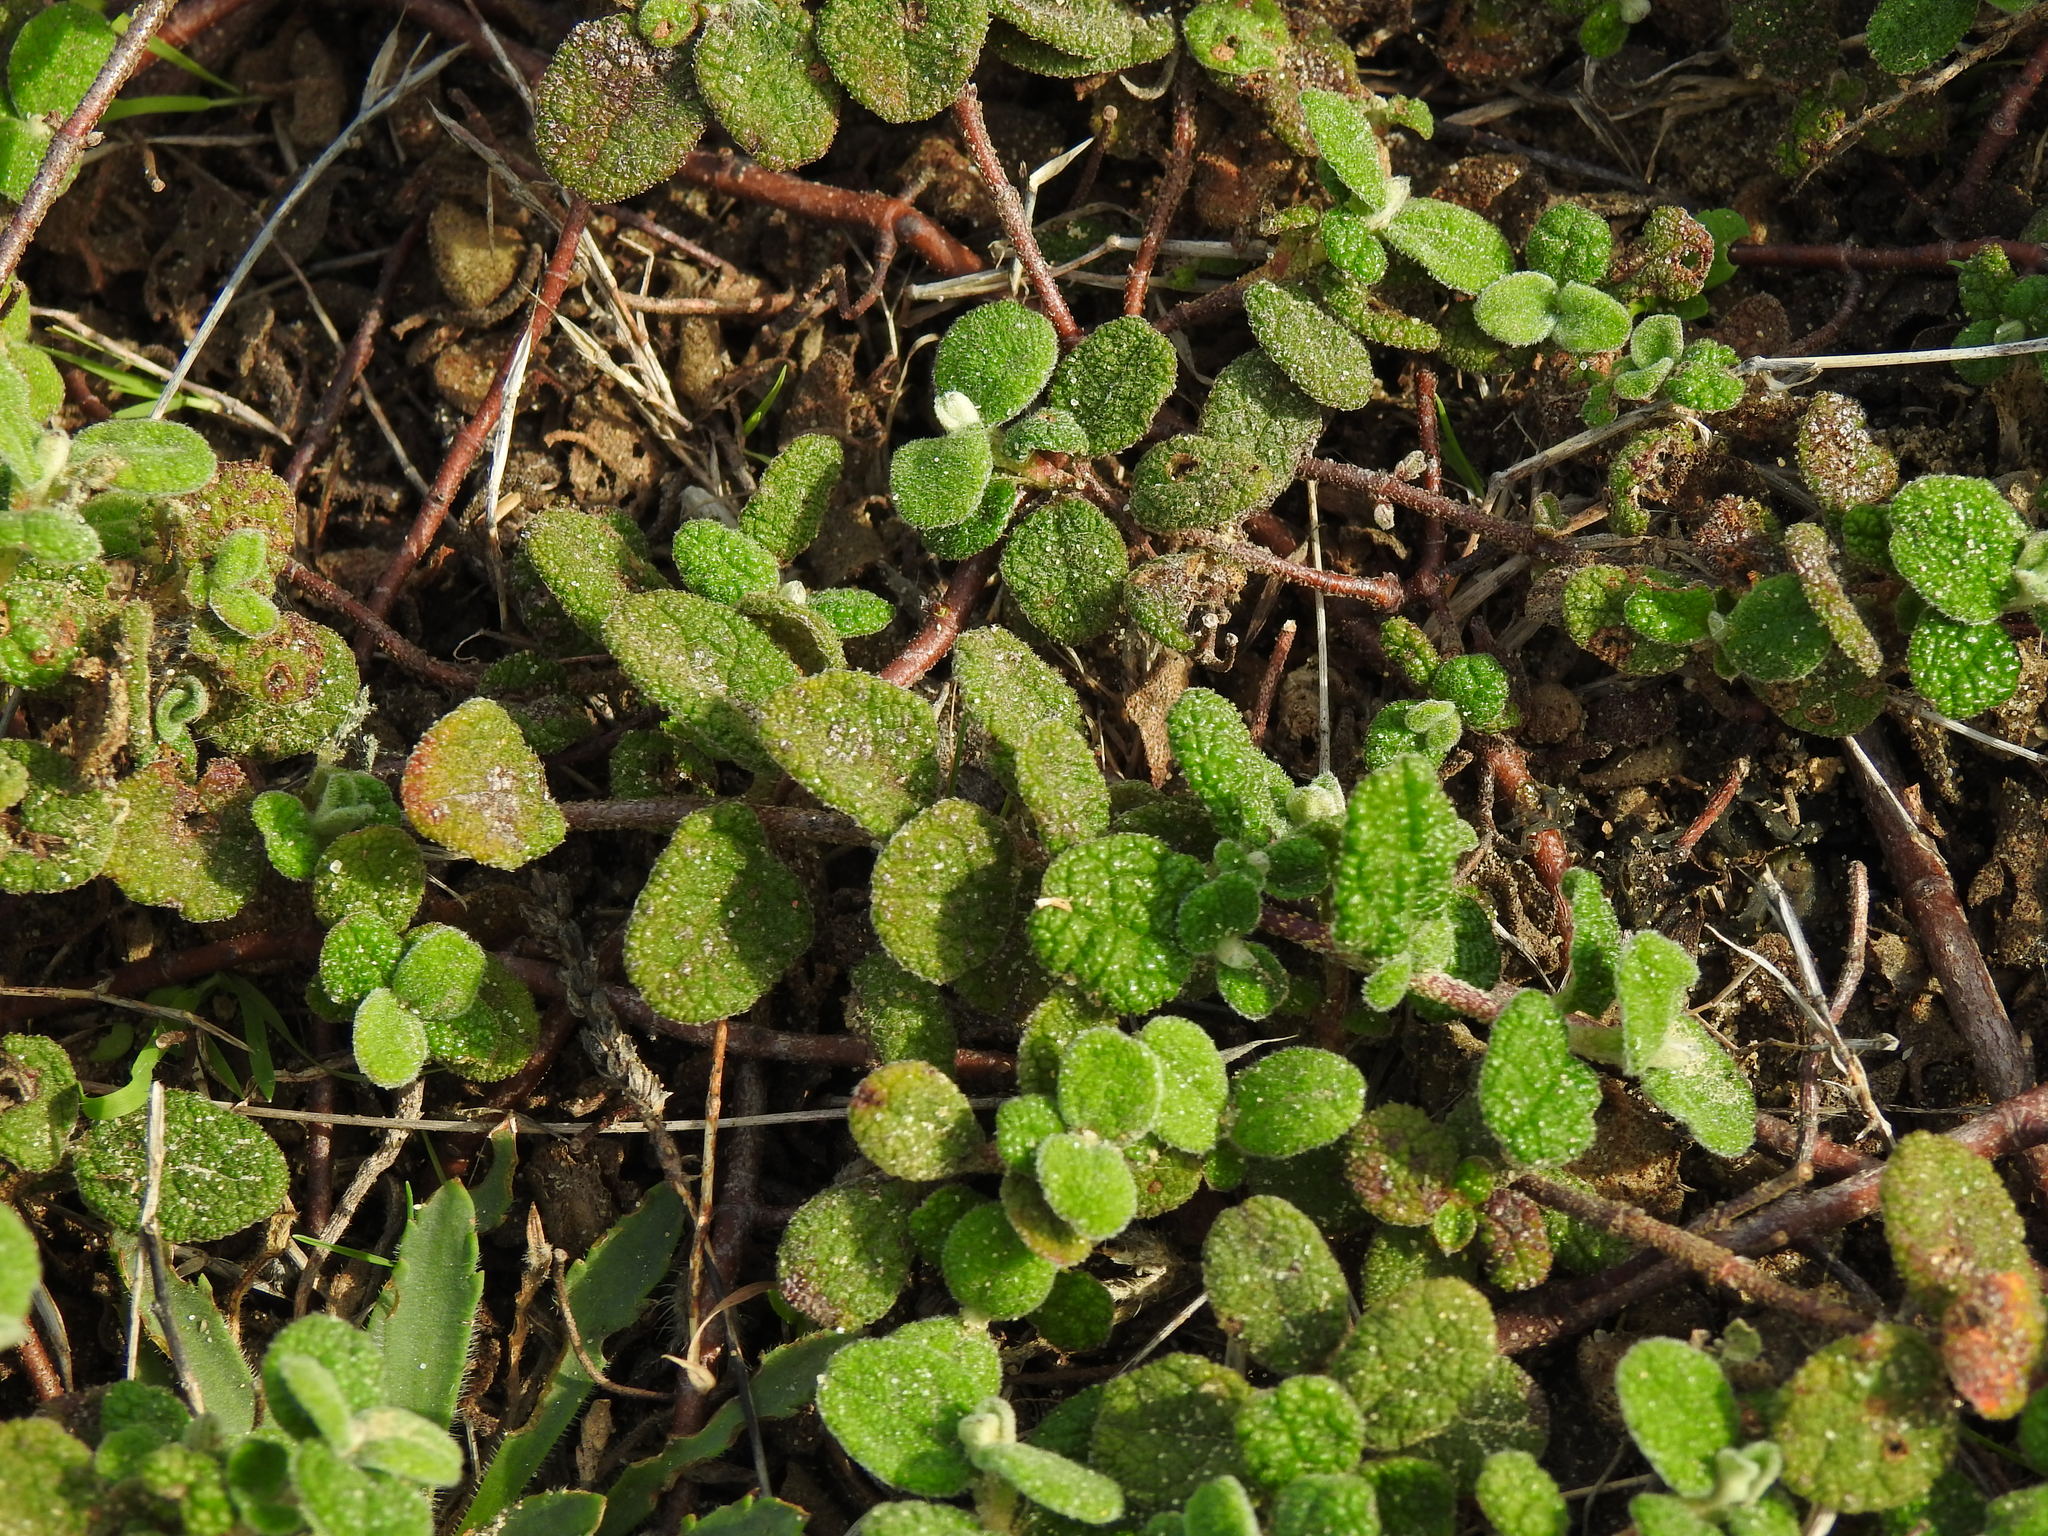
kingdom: Plantae
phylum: Tracheophyta
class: Magnoliopsida
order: Malvales
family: Cistaceae
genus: Cistus
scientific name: Cistus salviifolius
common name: Salvia cistus
